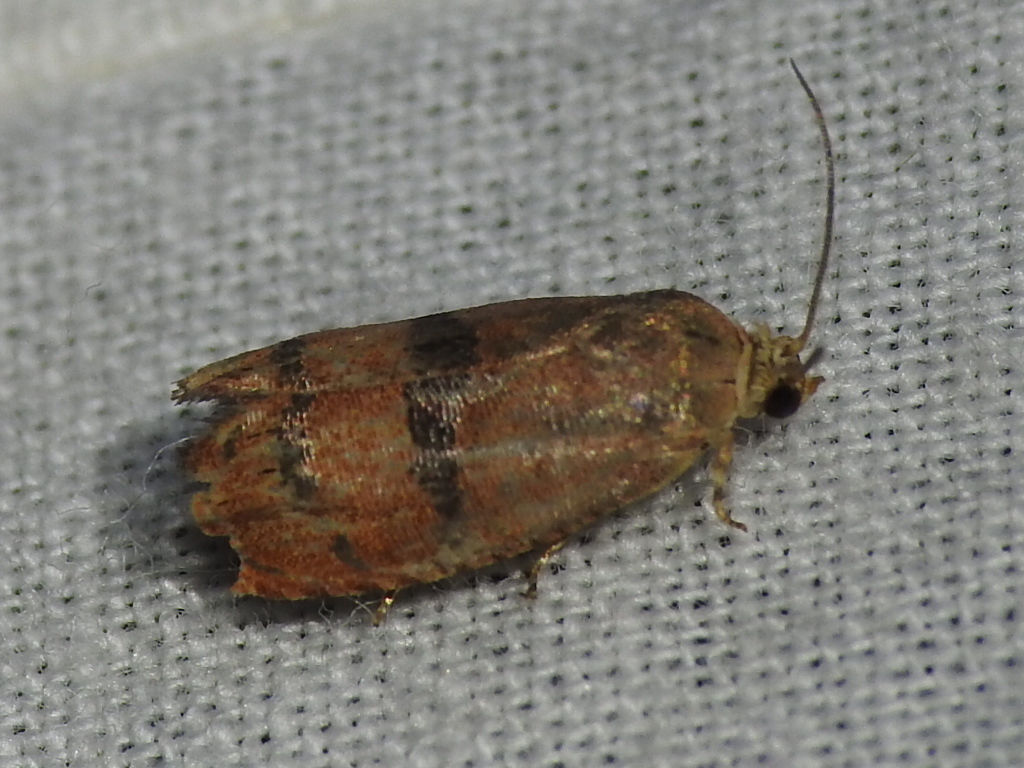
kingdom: Animalia
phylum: Arthropoda
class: Insecta
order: Lepidoptera
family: Tortricidae
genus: Cydia
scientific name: Cydia latiferreana
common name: Filbertworm moth
